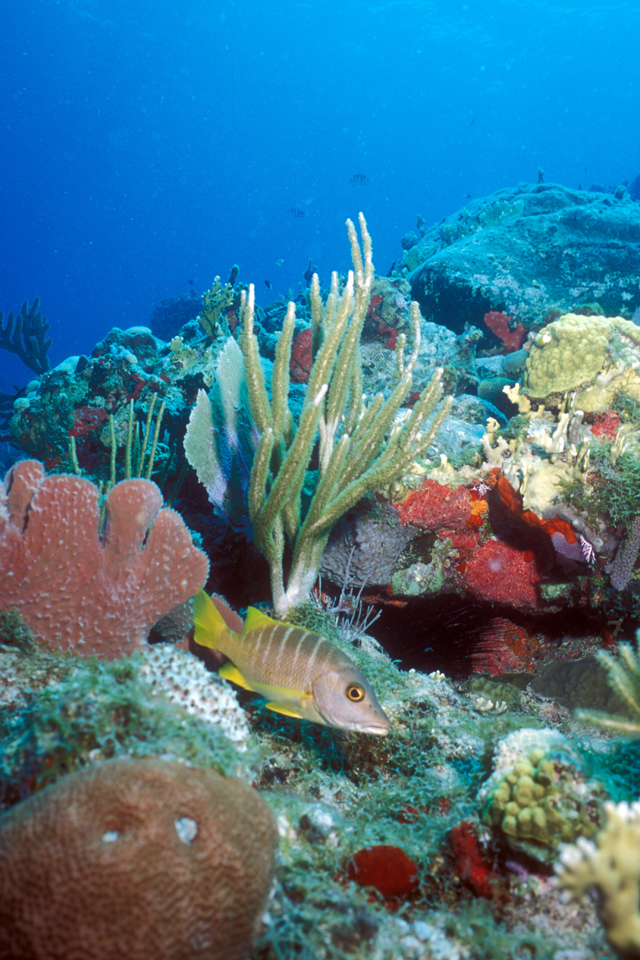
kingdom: Animalia
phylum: Chordata
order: Perciformes
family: Lutjanidae
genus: Lutjanus
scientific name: Lutjanus apodus
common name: Schoolmaster
